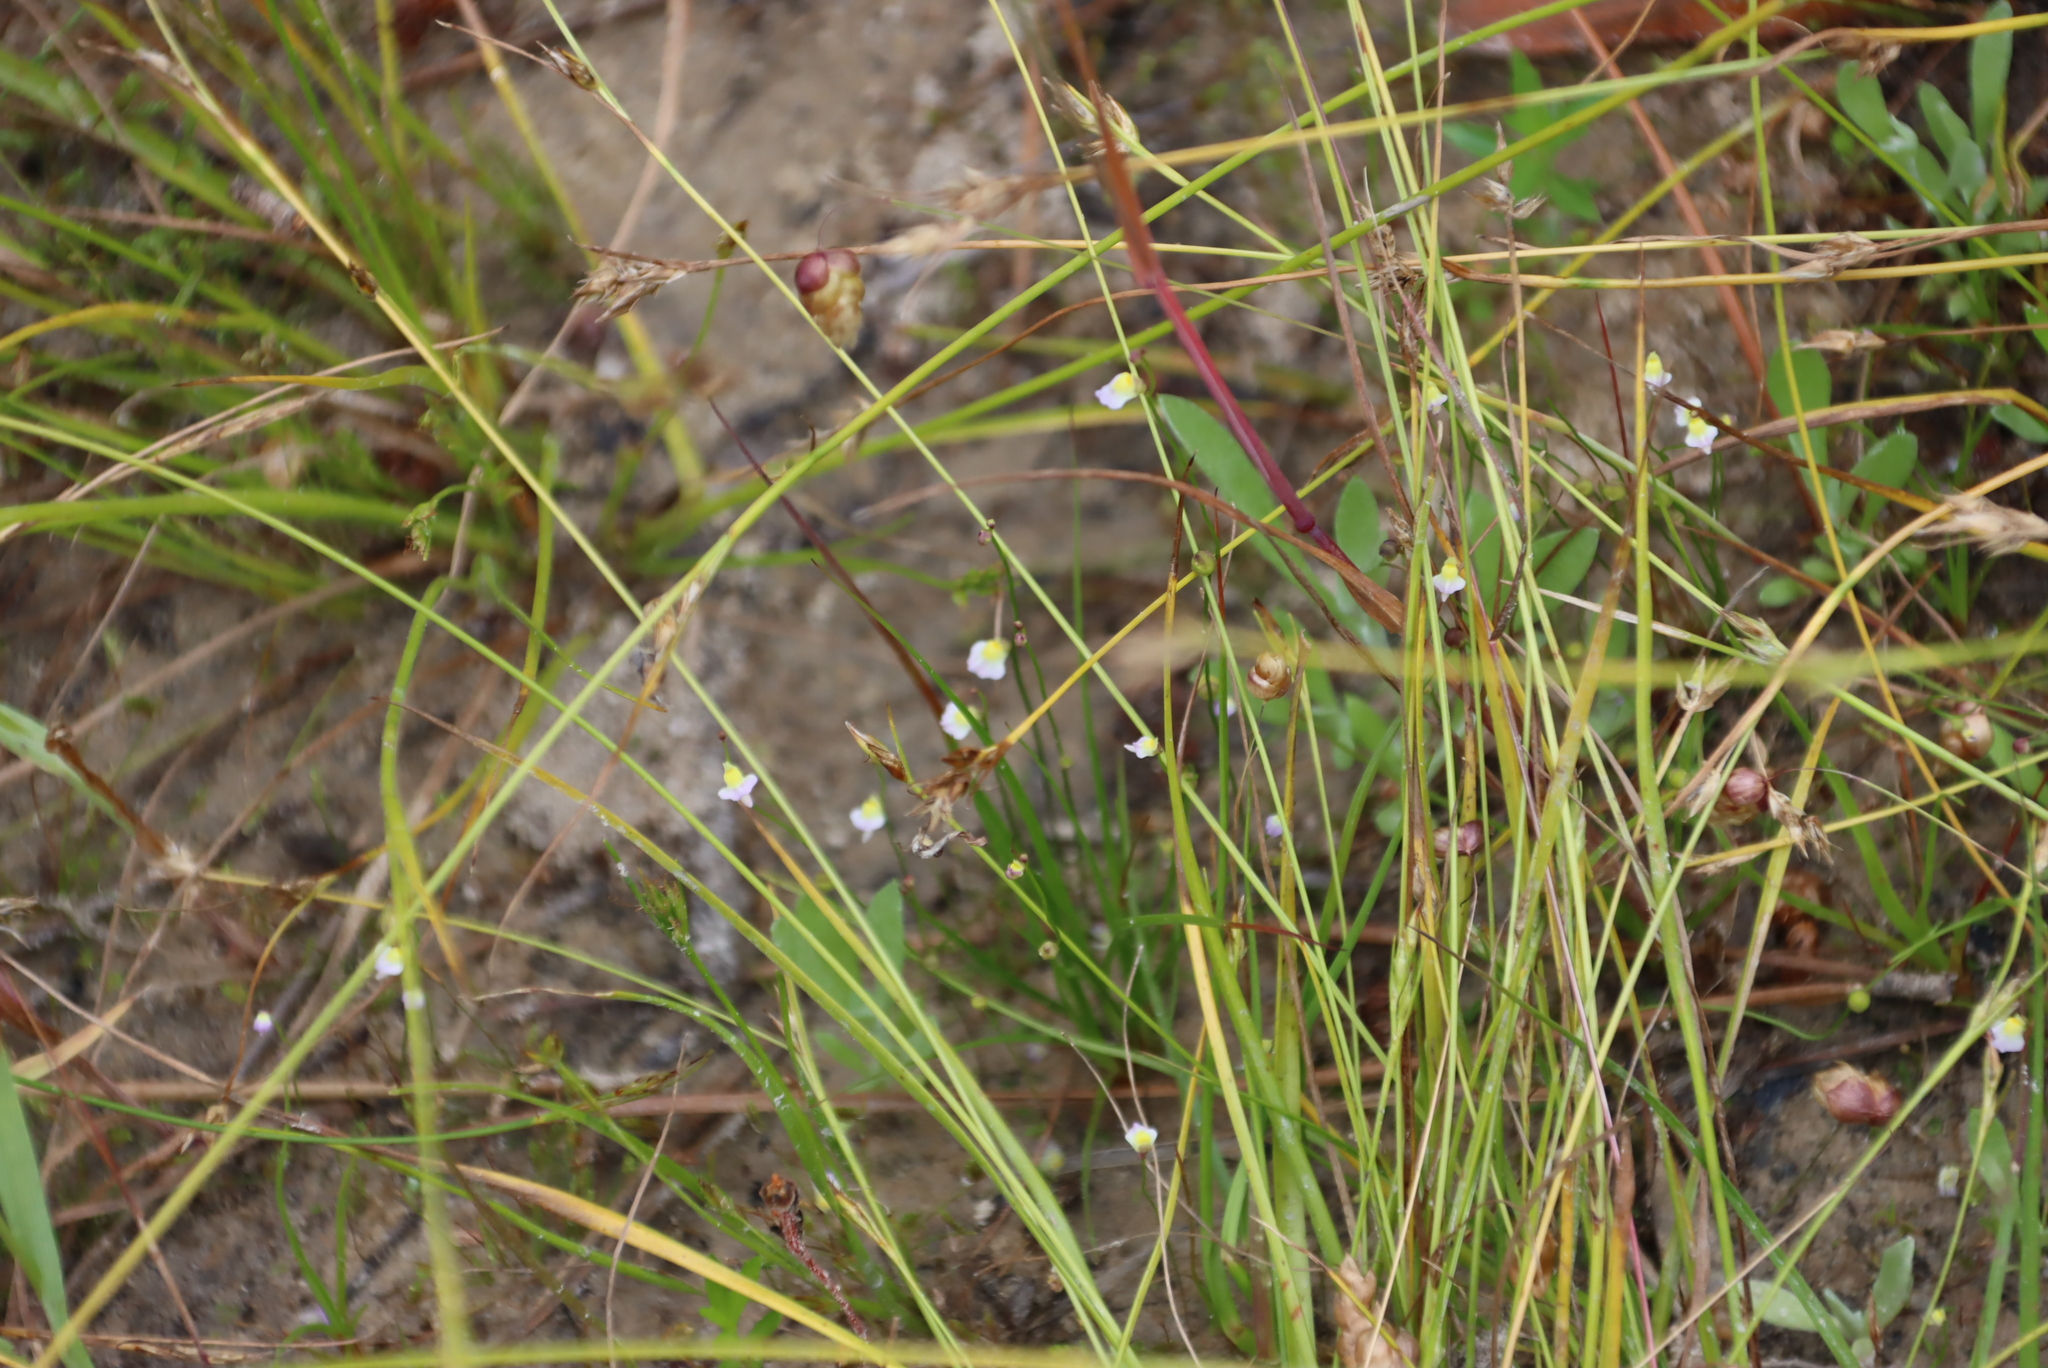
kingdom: Plantae
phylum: Tracheophyta
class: Magnoliopsida
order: Lamiales
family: Lentibulariaceae
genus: Utricularia
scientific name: Utricularia bisquamata
